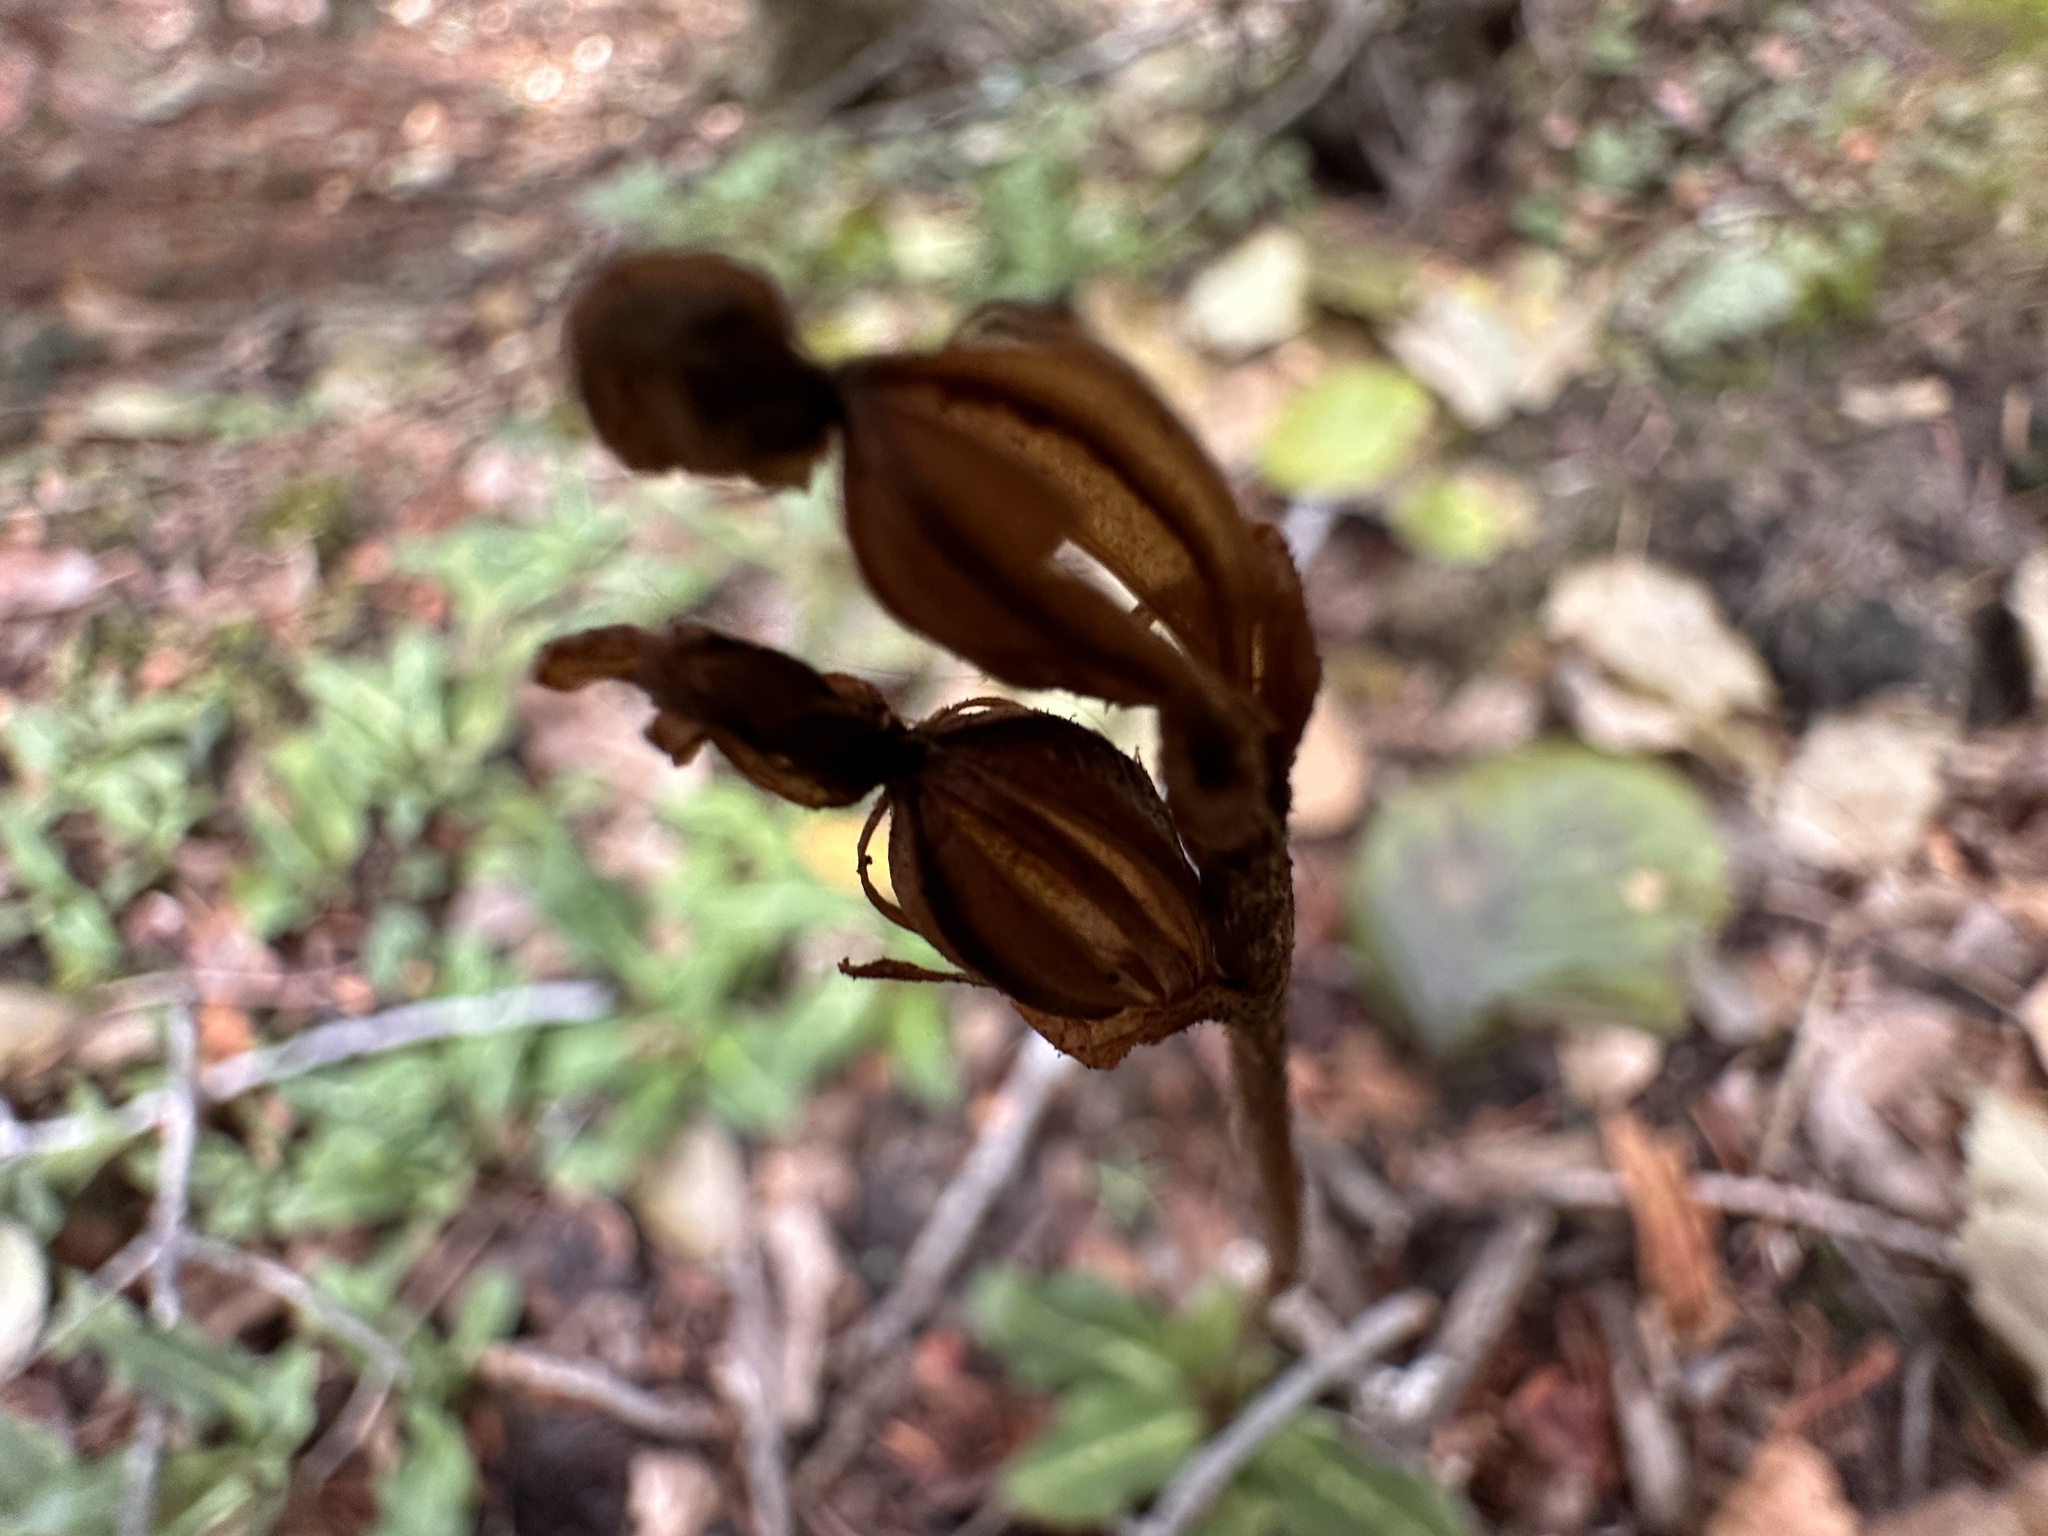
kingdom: Plantae
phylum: Tracheophyta
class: Liliopsida
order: Asparagales
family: Orchidaceae
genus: Goodyera
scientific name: Goodyera oblongifolia
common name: Giant rattlesnake-plantain
